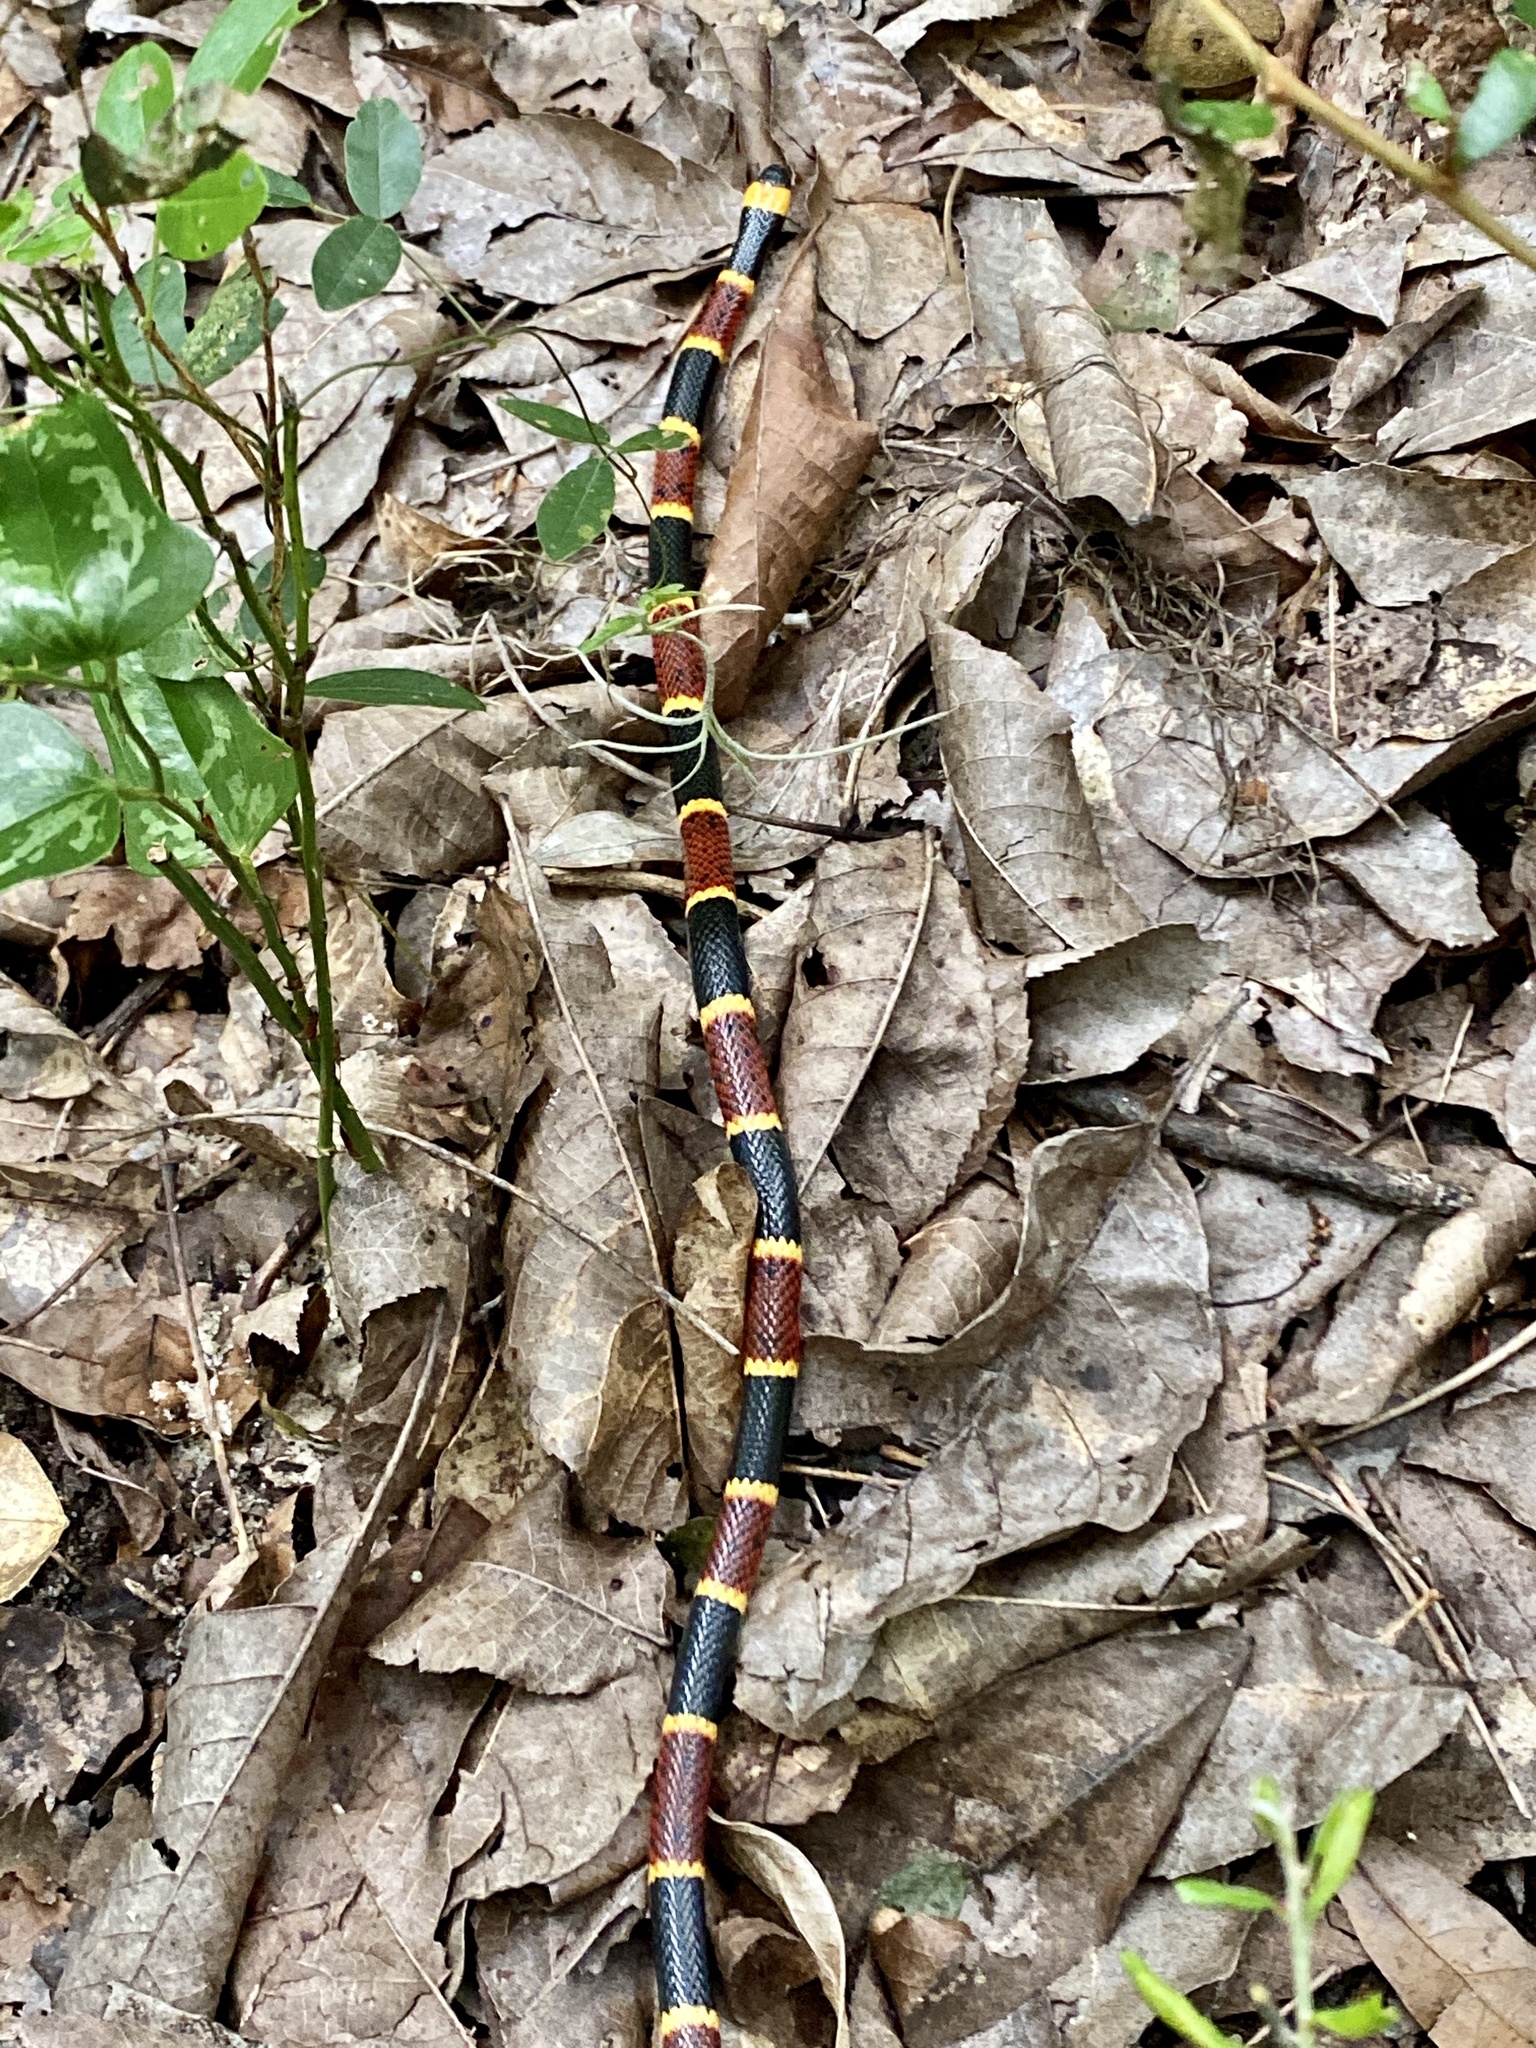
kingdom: Animalia
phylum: Chordata
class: Squamata
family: Elapidae
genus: Micrurus
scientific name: Micrurus fulvius
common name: Eastern coral snake
